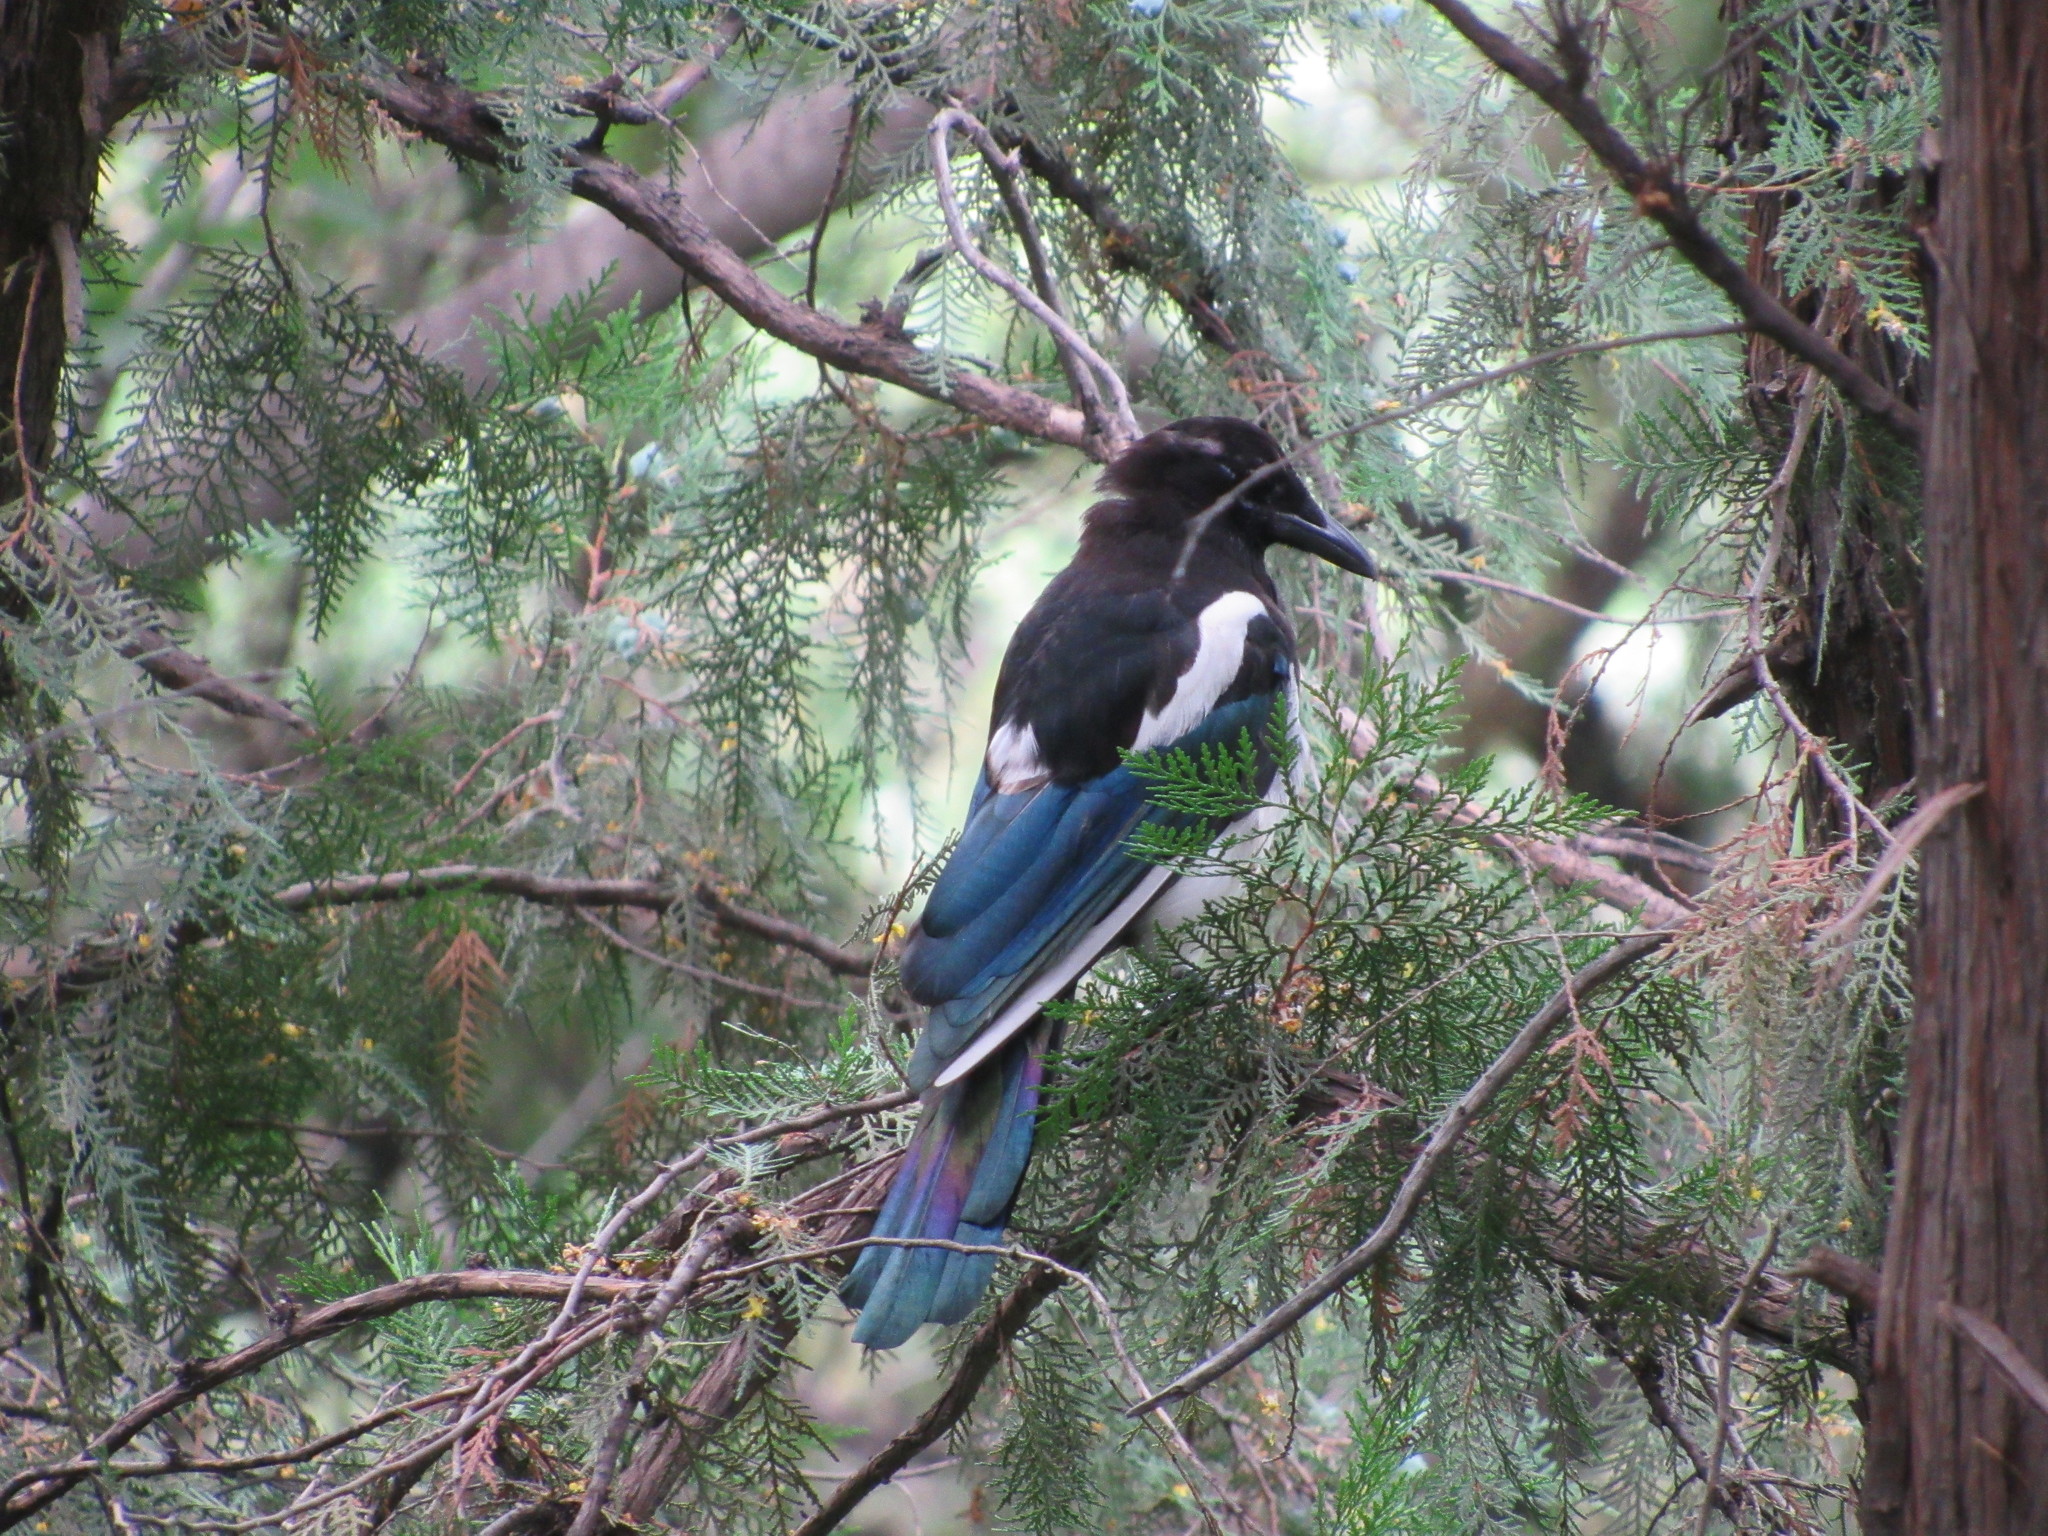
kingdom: Animalia
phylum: Chordata
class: Aves
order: Passeriformes
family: Corvidae
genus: Pica
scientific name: Pica serica
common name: Oriental magpie
